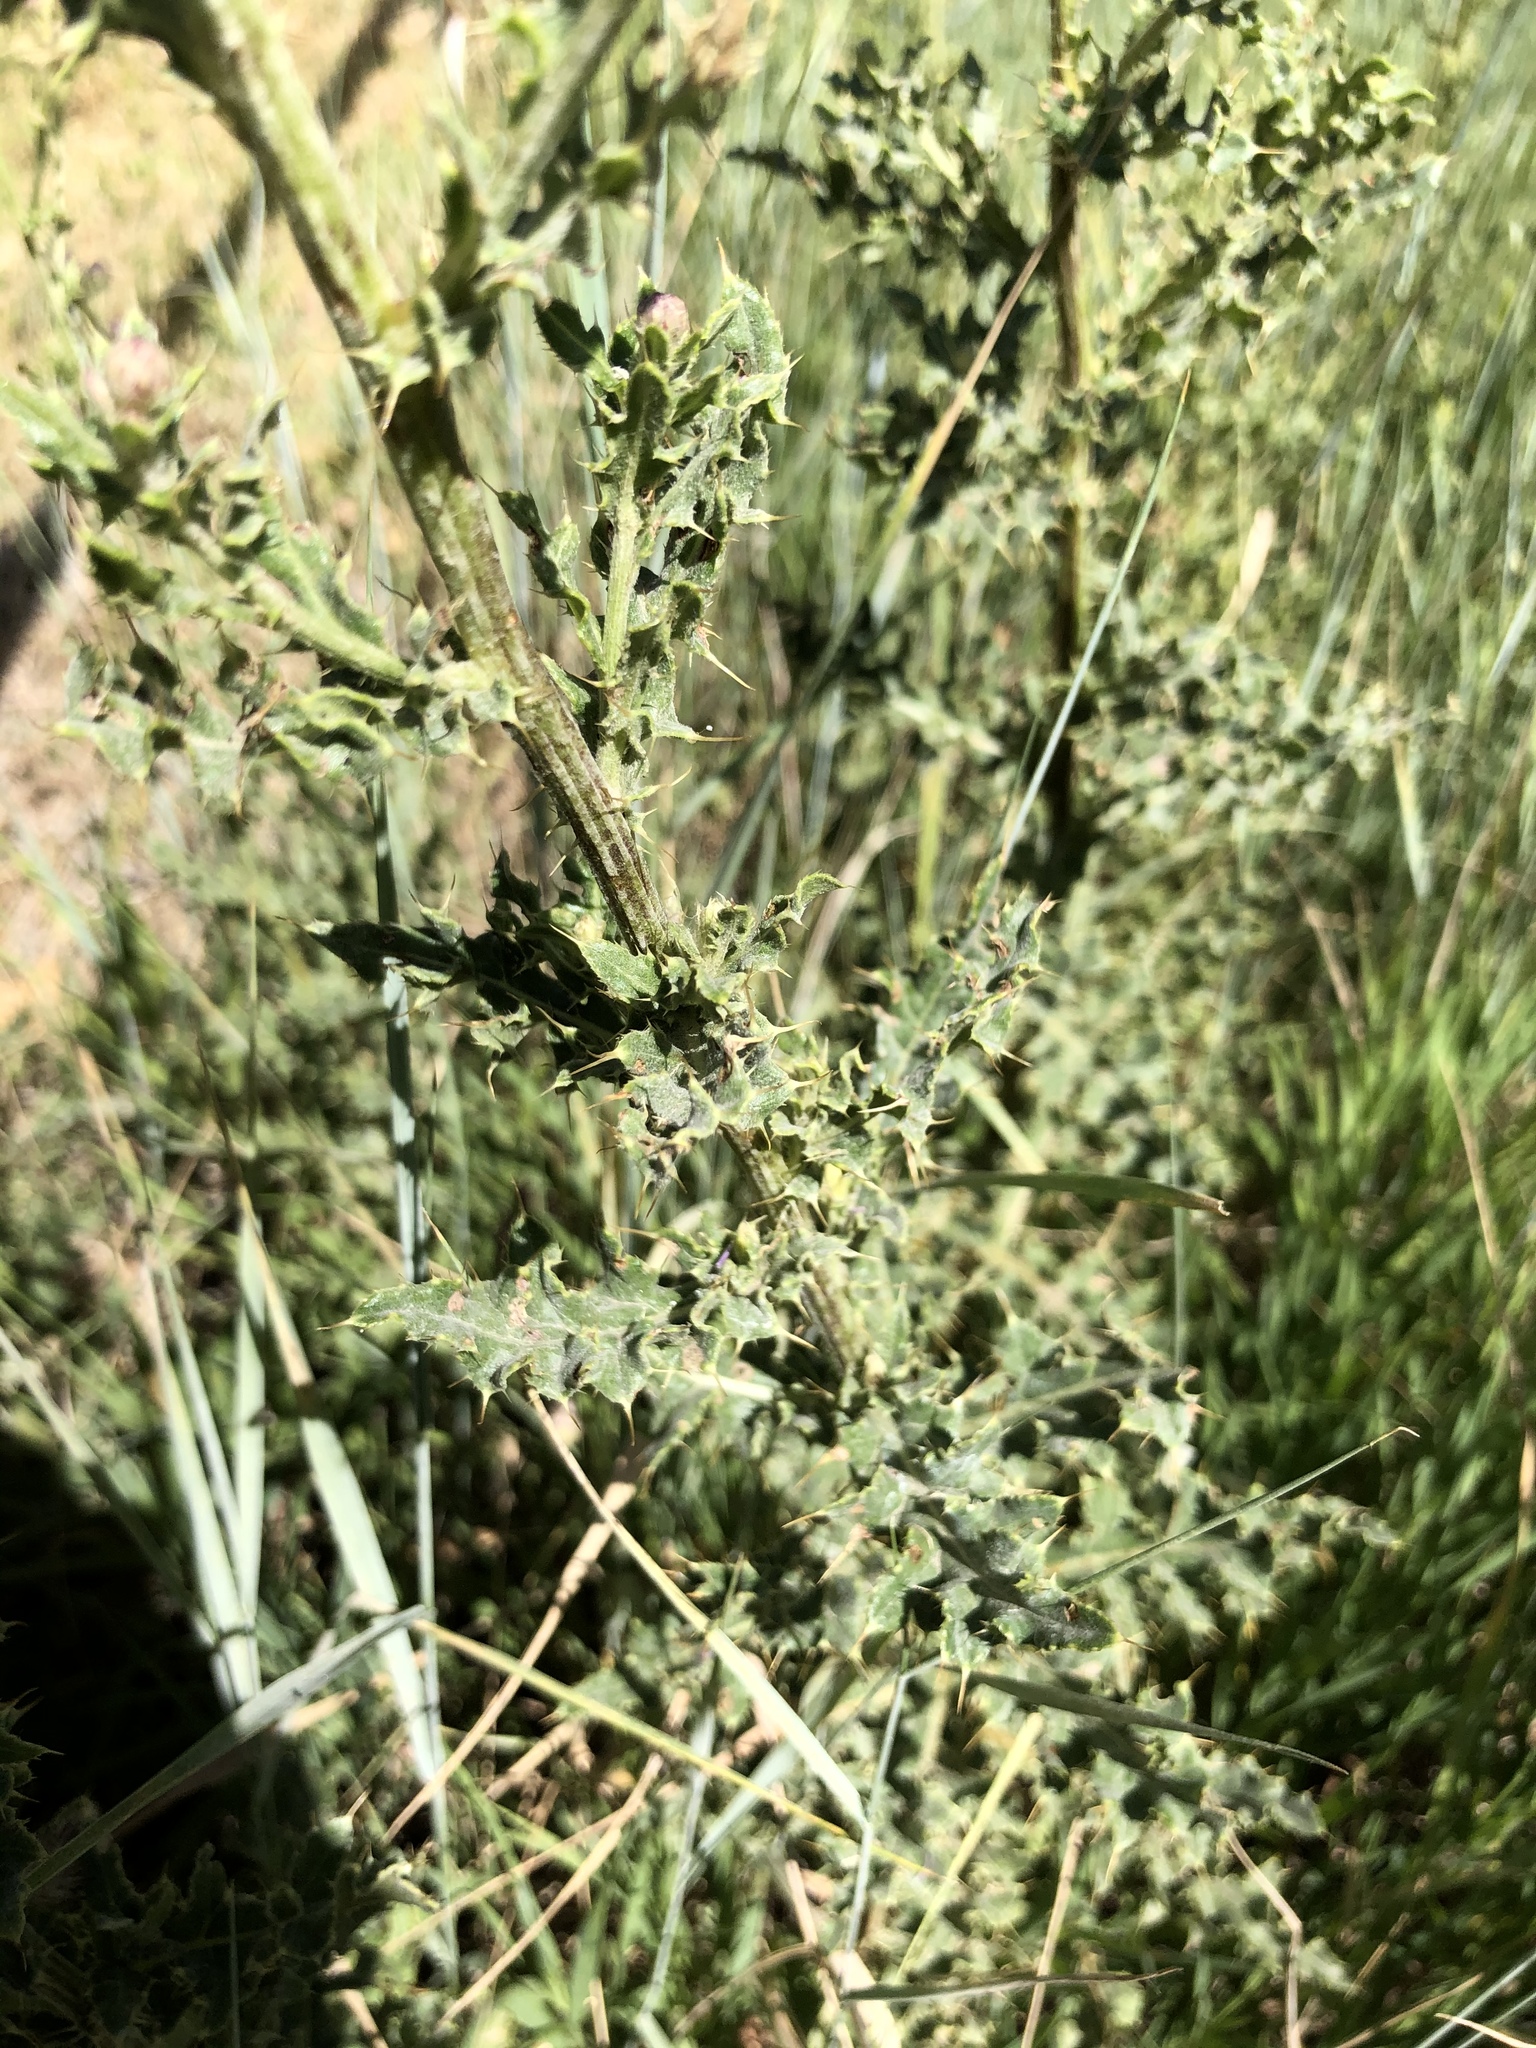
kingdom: Plantae
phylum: Tracheophyta
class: Magnoliopsida
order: Asterales
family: Asteraceae
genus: Cirsium
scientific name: Cirsium arvense
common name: Creeping thistle
